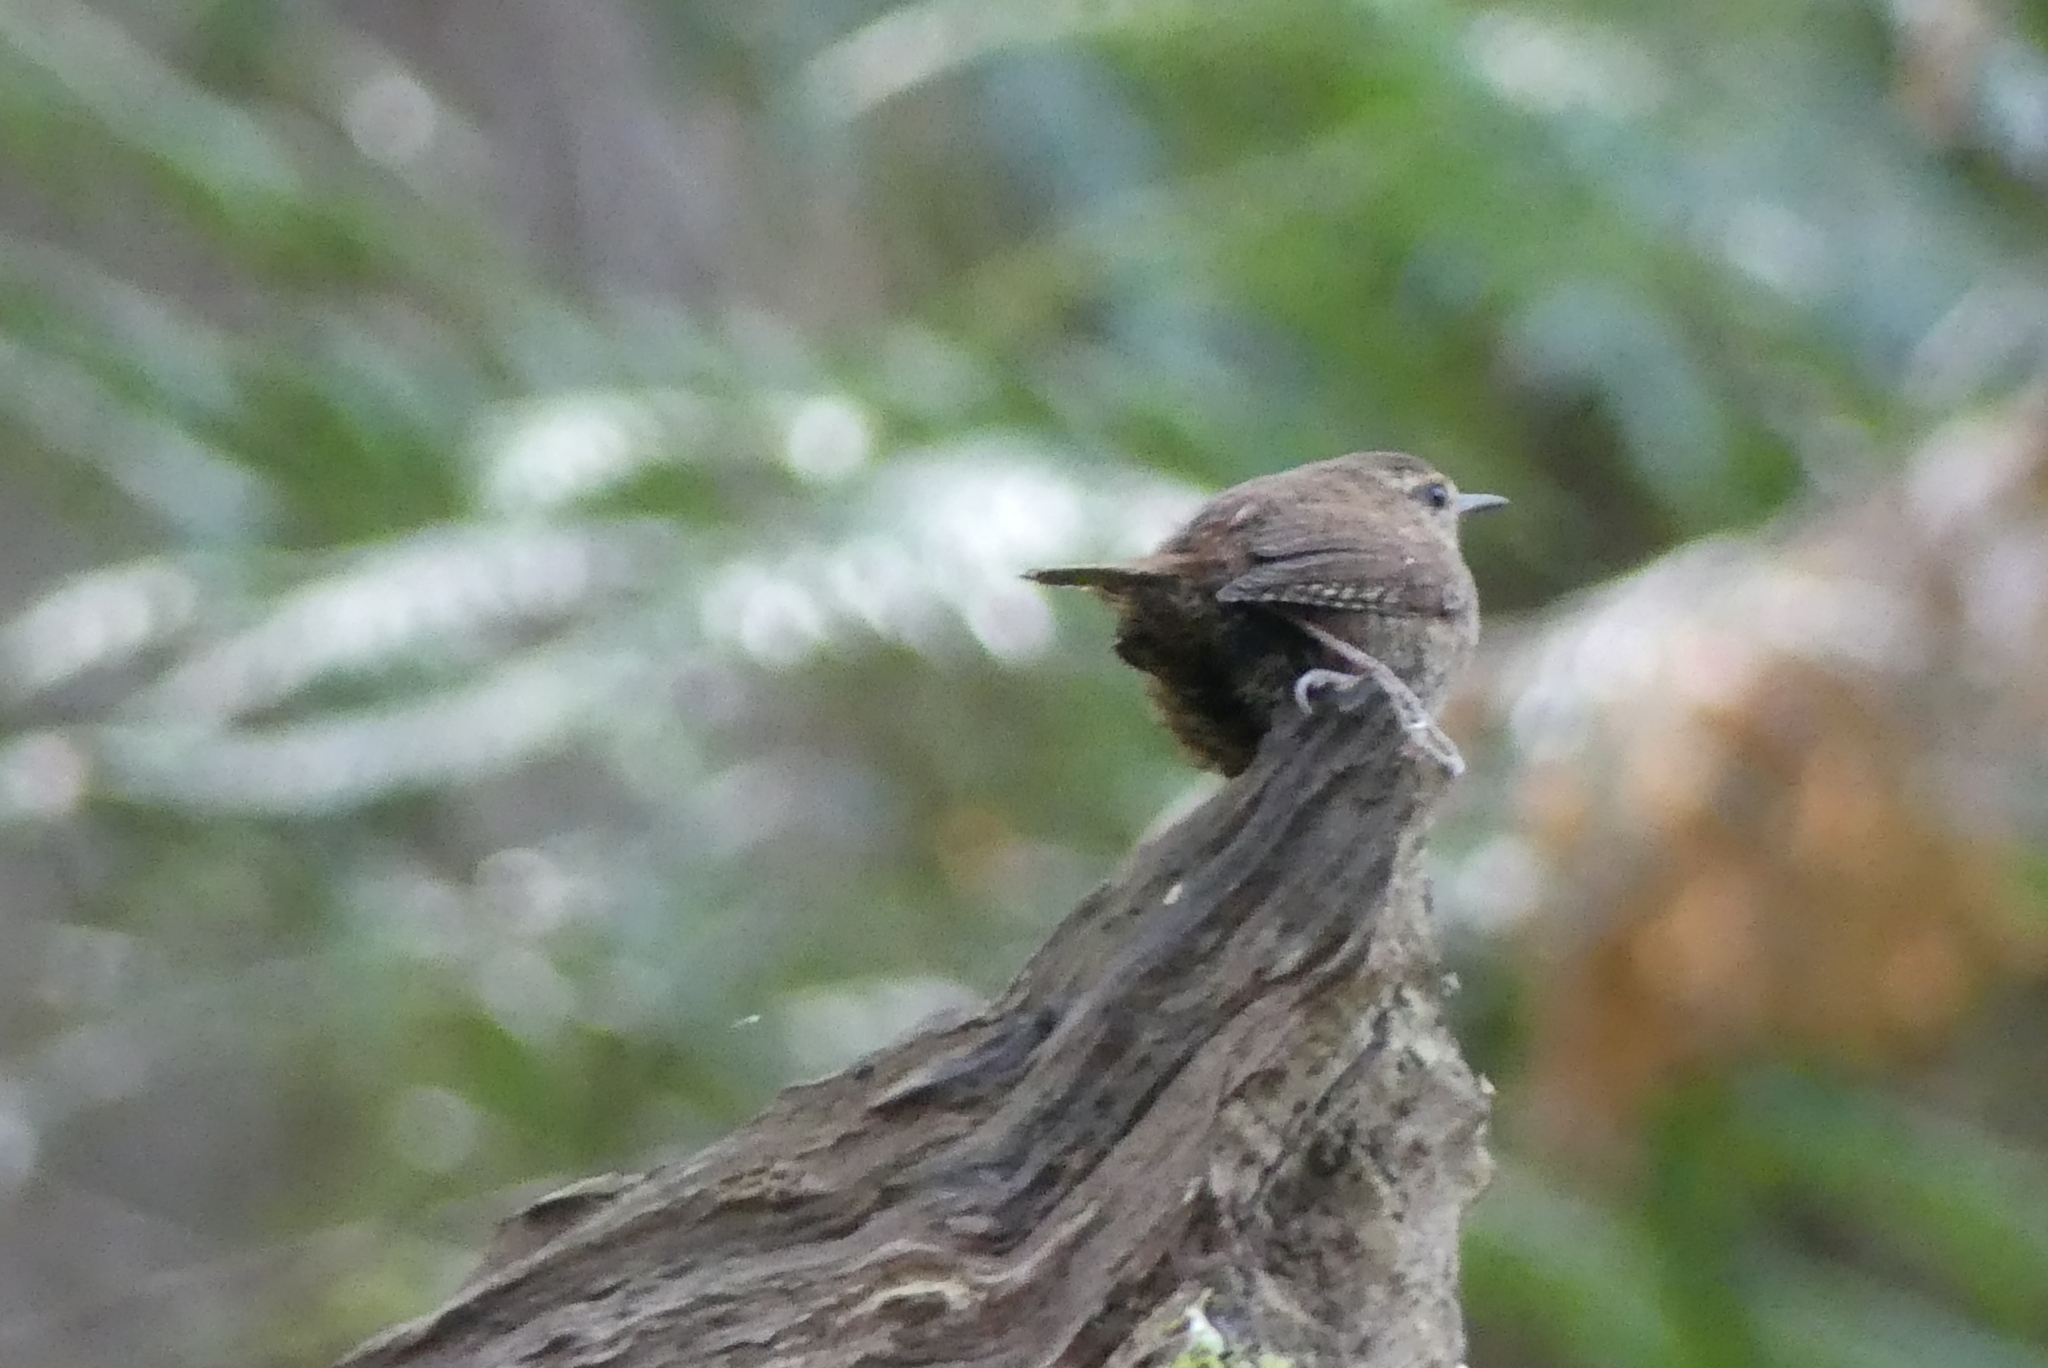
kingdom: Animalia
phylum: Chordata
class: Aves
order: Passeriformes
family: Troglodytidae
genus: Troglodytes
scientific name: Troglodytes pacificus
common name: Pacific wren
